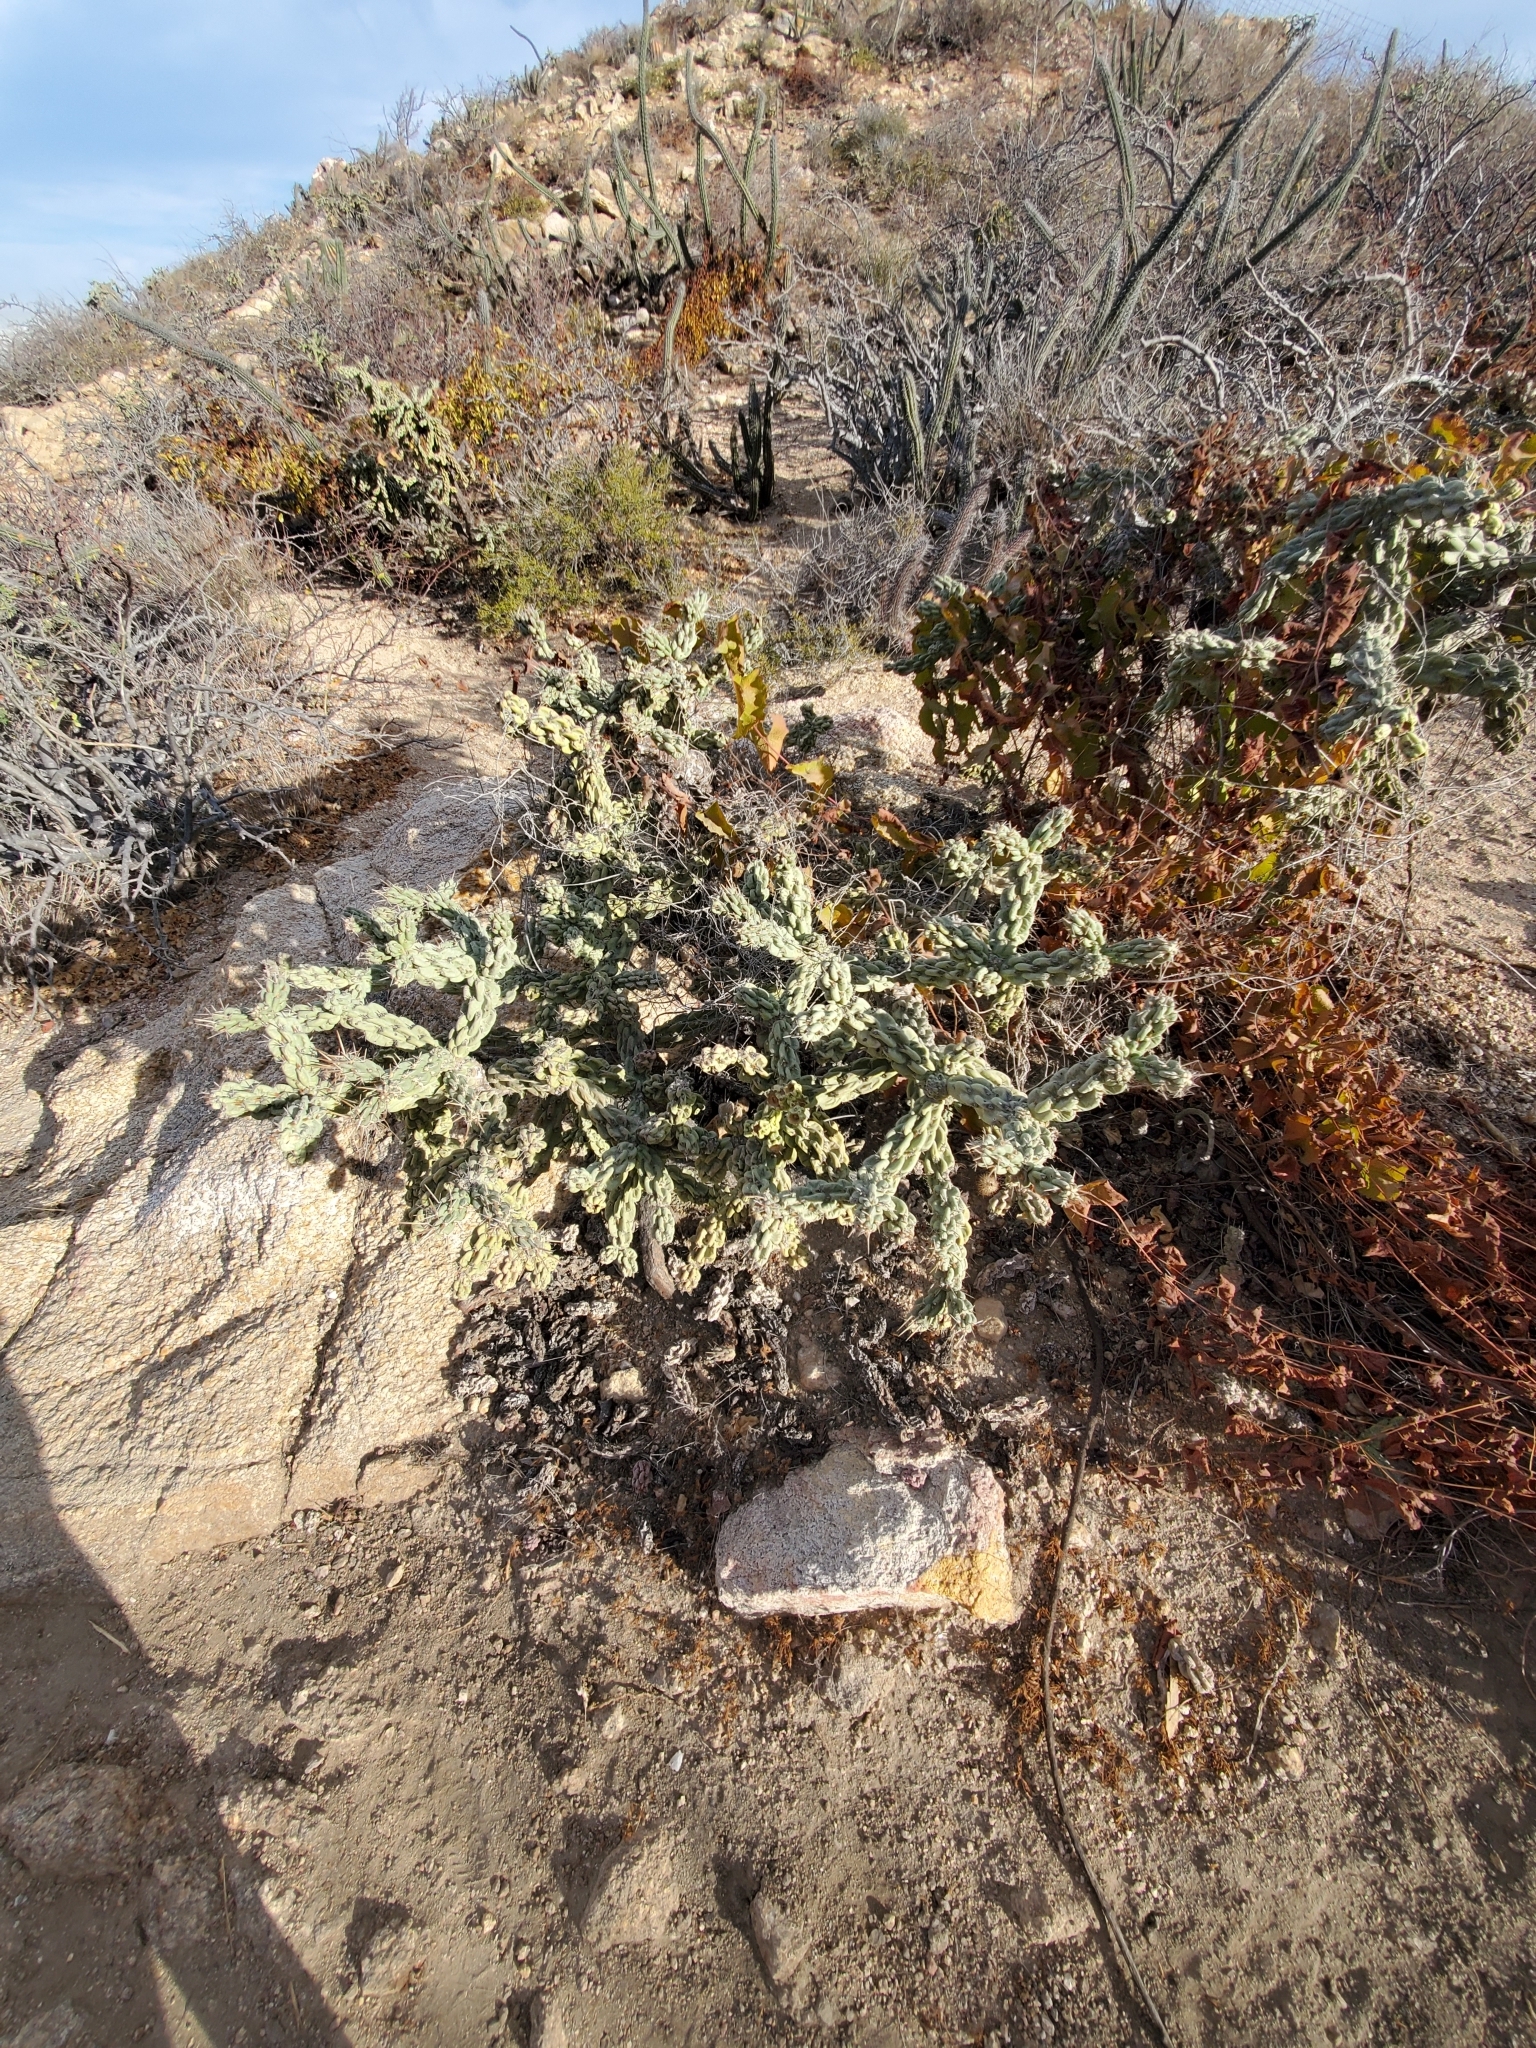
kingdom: Plantae
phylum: Tracheophyta
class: Magnoliopsida
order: Caryophyllales
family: Cactaceae
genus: Cylindropuntia
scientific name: Cylindropuntia cholla
